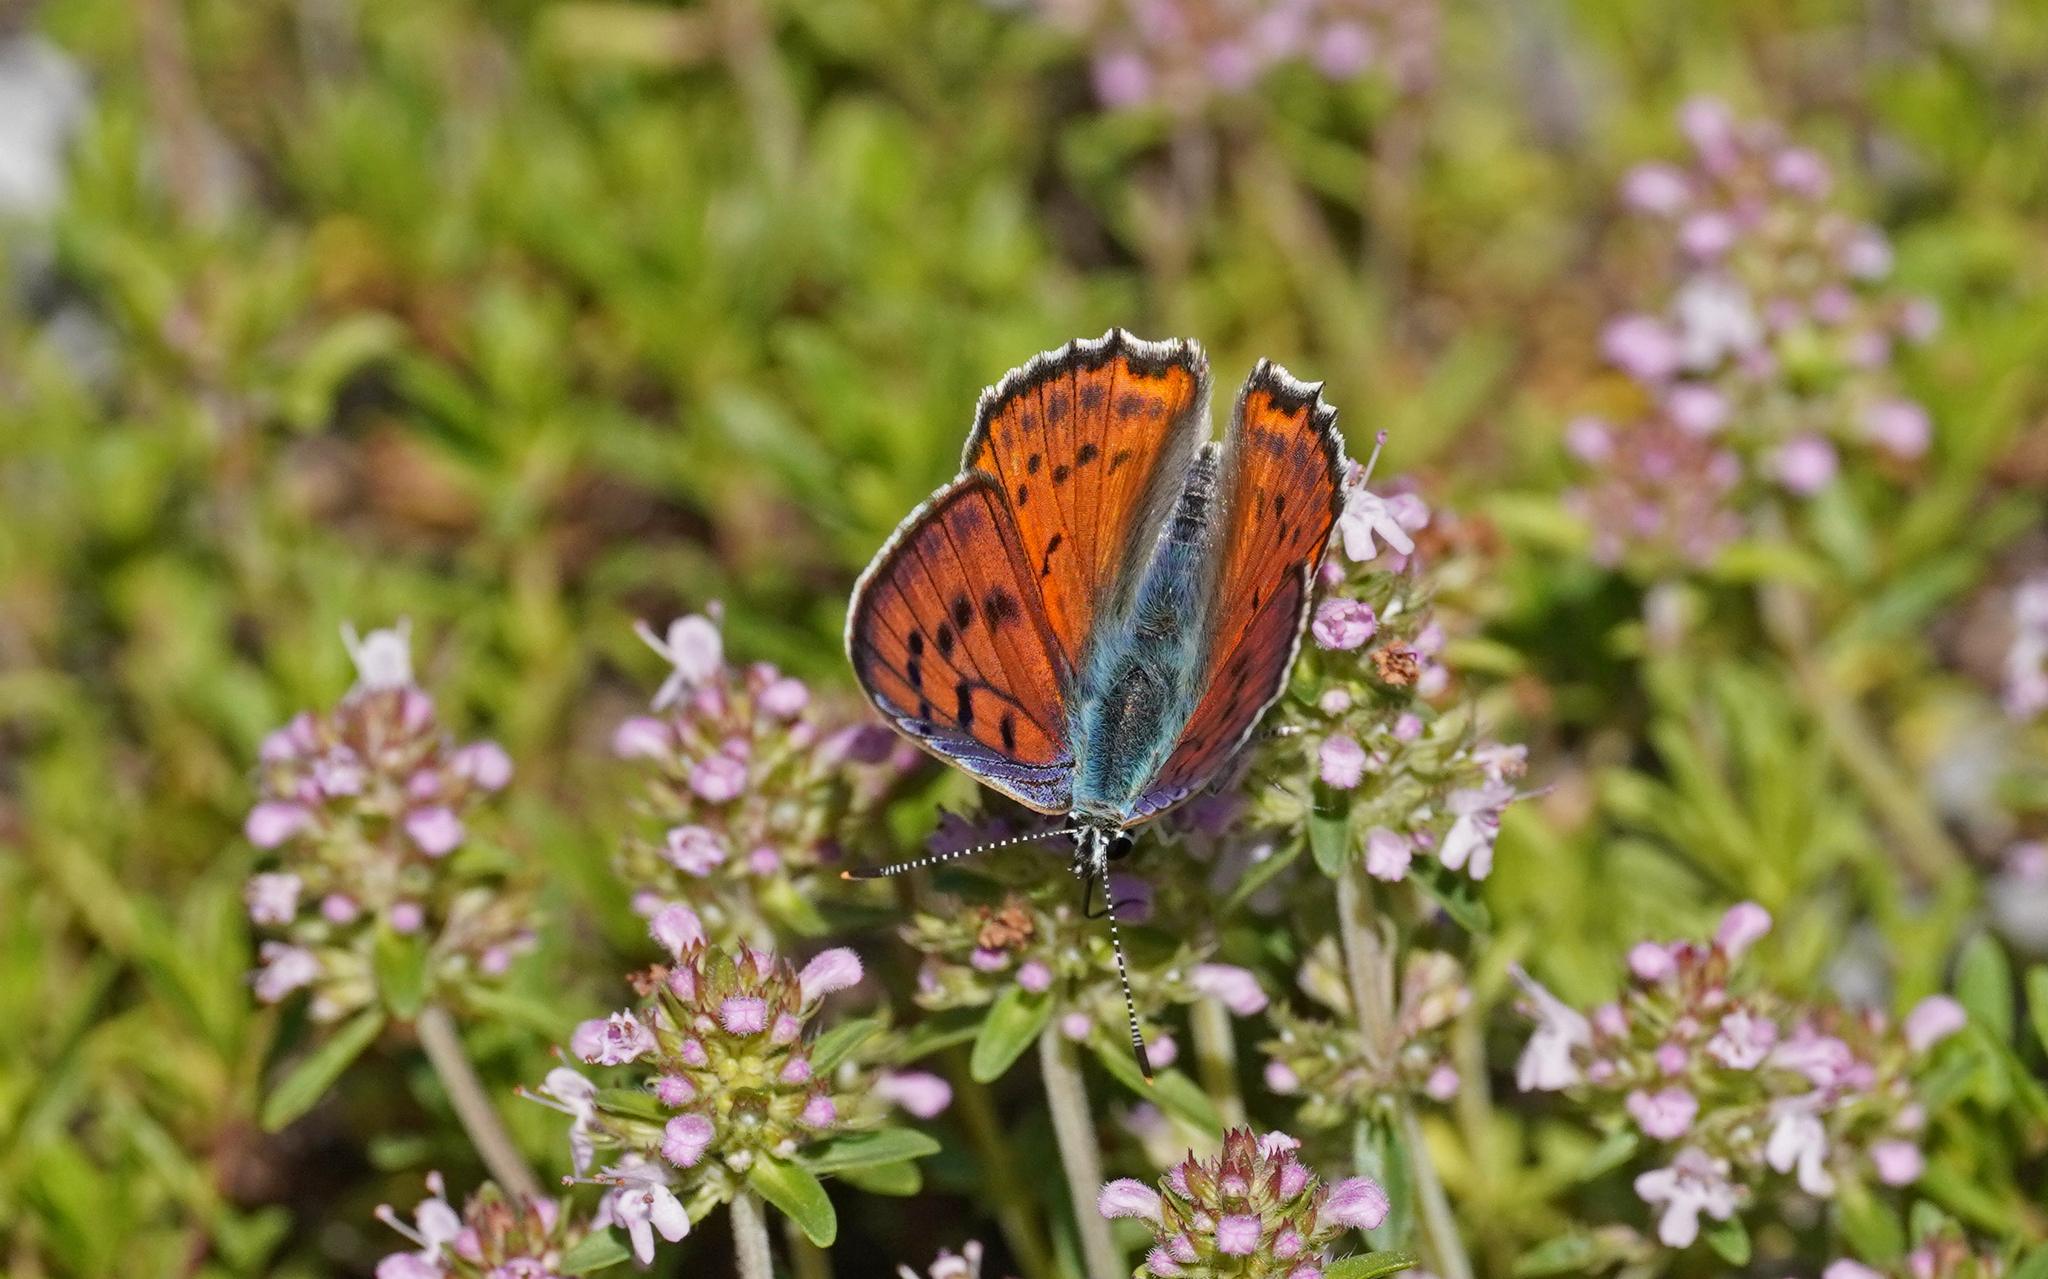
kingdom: Animalia
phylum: Arthropoda
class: Insecta
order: Lepidoptera
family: Lycaenidae
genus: Lycaena
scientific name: Lycaena alciphron
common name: Purple-shot copper
